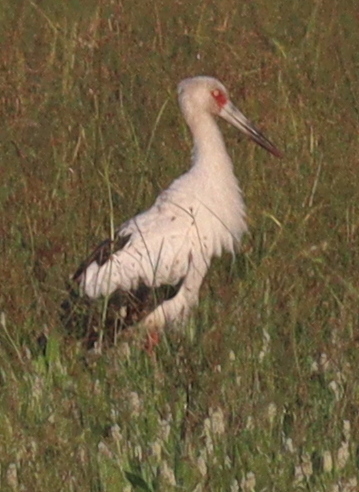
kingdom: Animalia
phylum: Chordata
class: Aves
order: Ciconiiformes
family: Ciconiidae
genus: Ciconia
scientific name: Ciconia maguari
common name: Maguari stork
